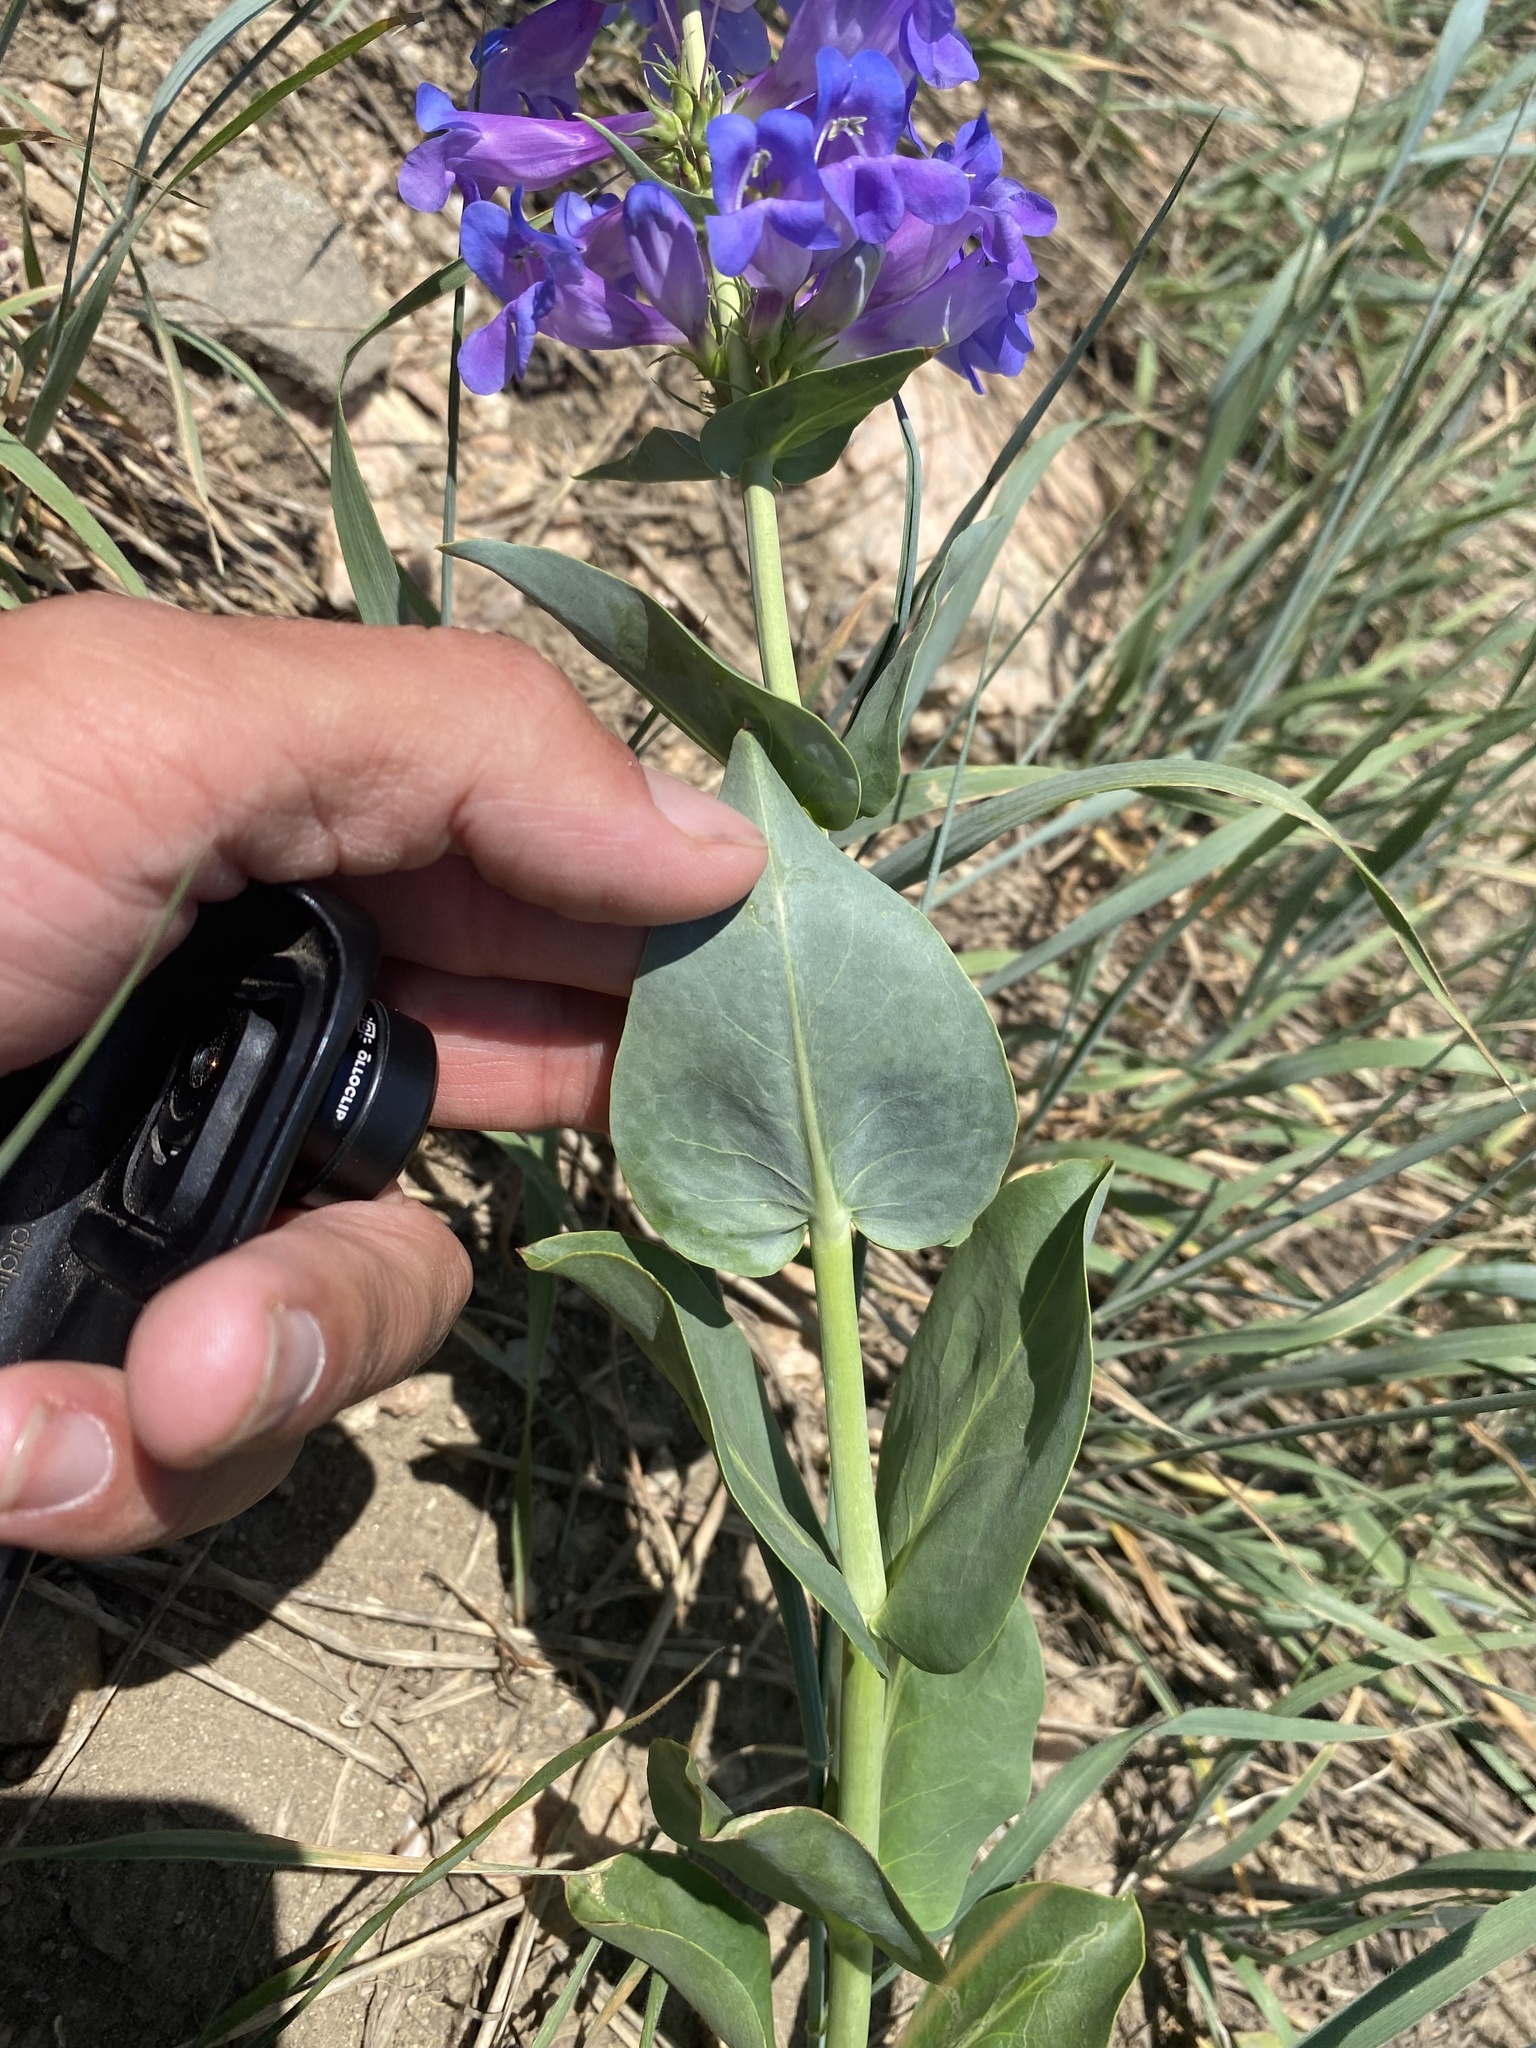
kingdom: Plantae
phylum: Tracheophyta
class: Magnoliopsida
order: Lamiales
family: Plantaginaceae
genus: Penstemon
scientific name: Penstemon cyananthus
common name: Wasatch penstemon
